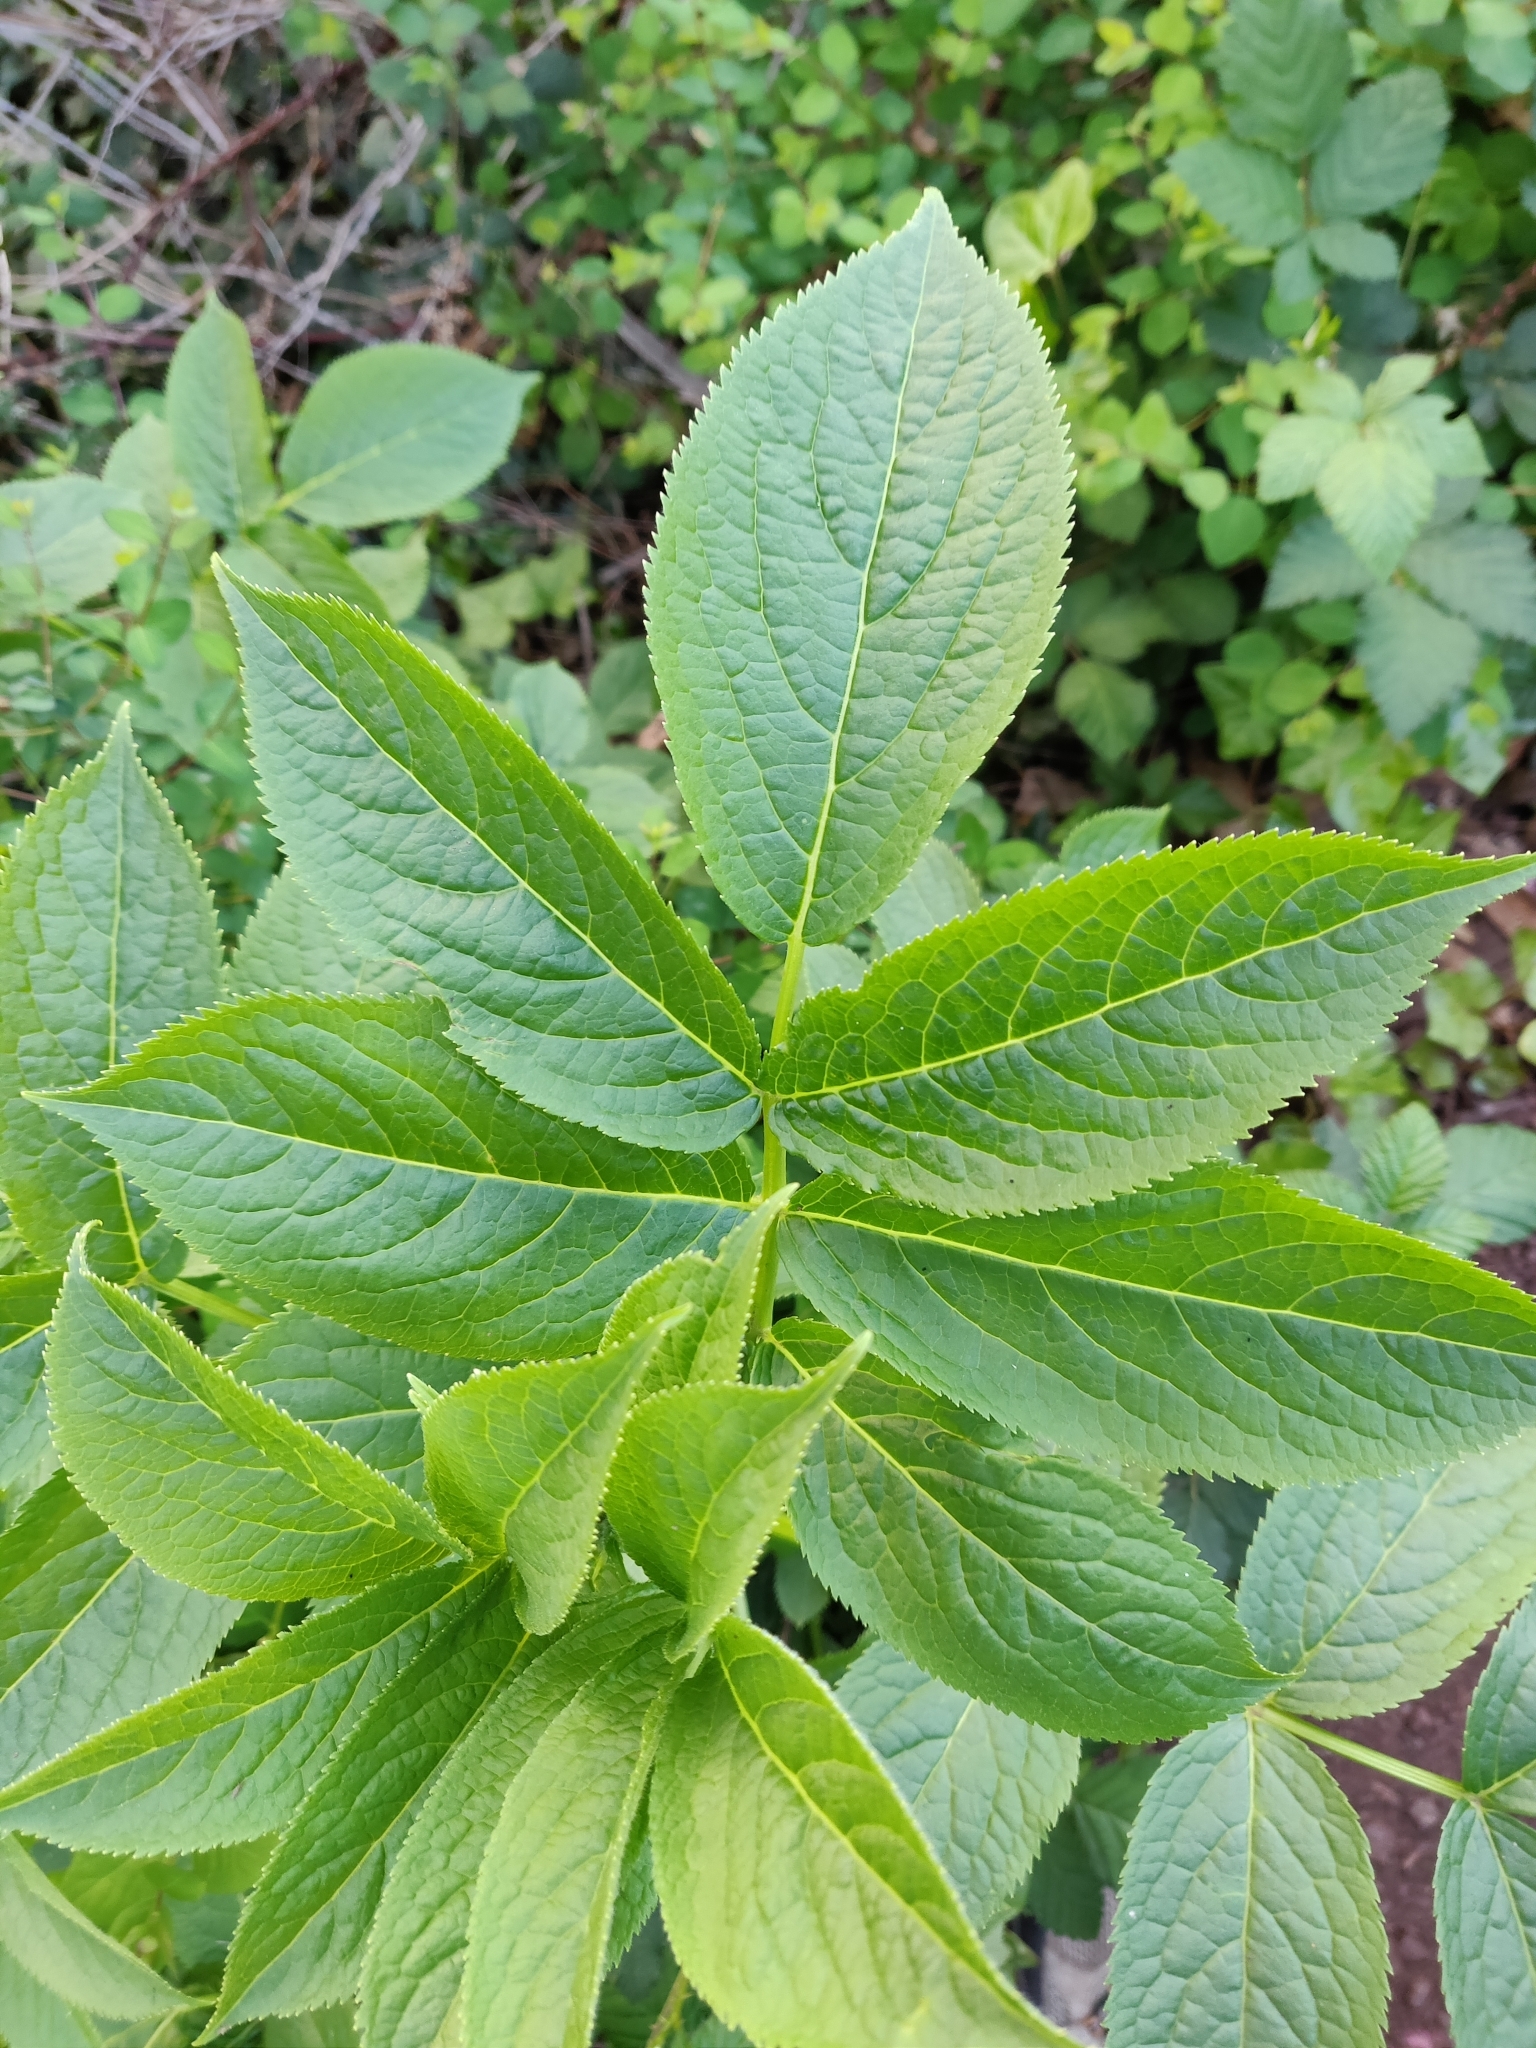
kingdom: Plantae
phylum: Tracheophyta
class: Magnoliopsida
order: Dipsacales
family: Viburnaceae
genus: Sambucus
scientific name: Sambucus racemosa
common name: Red-berried elder
